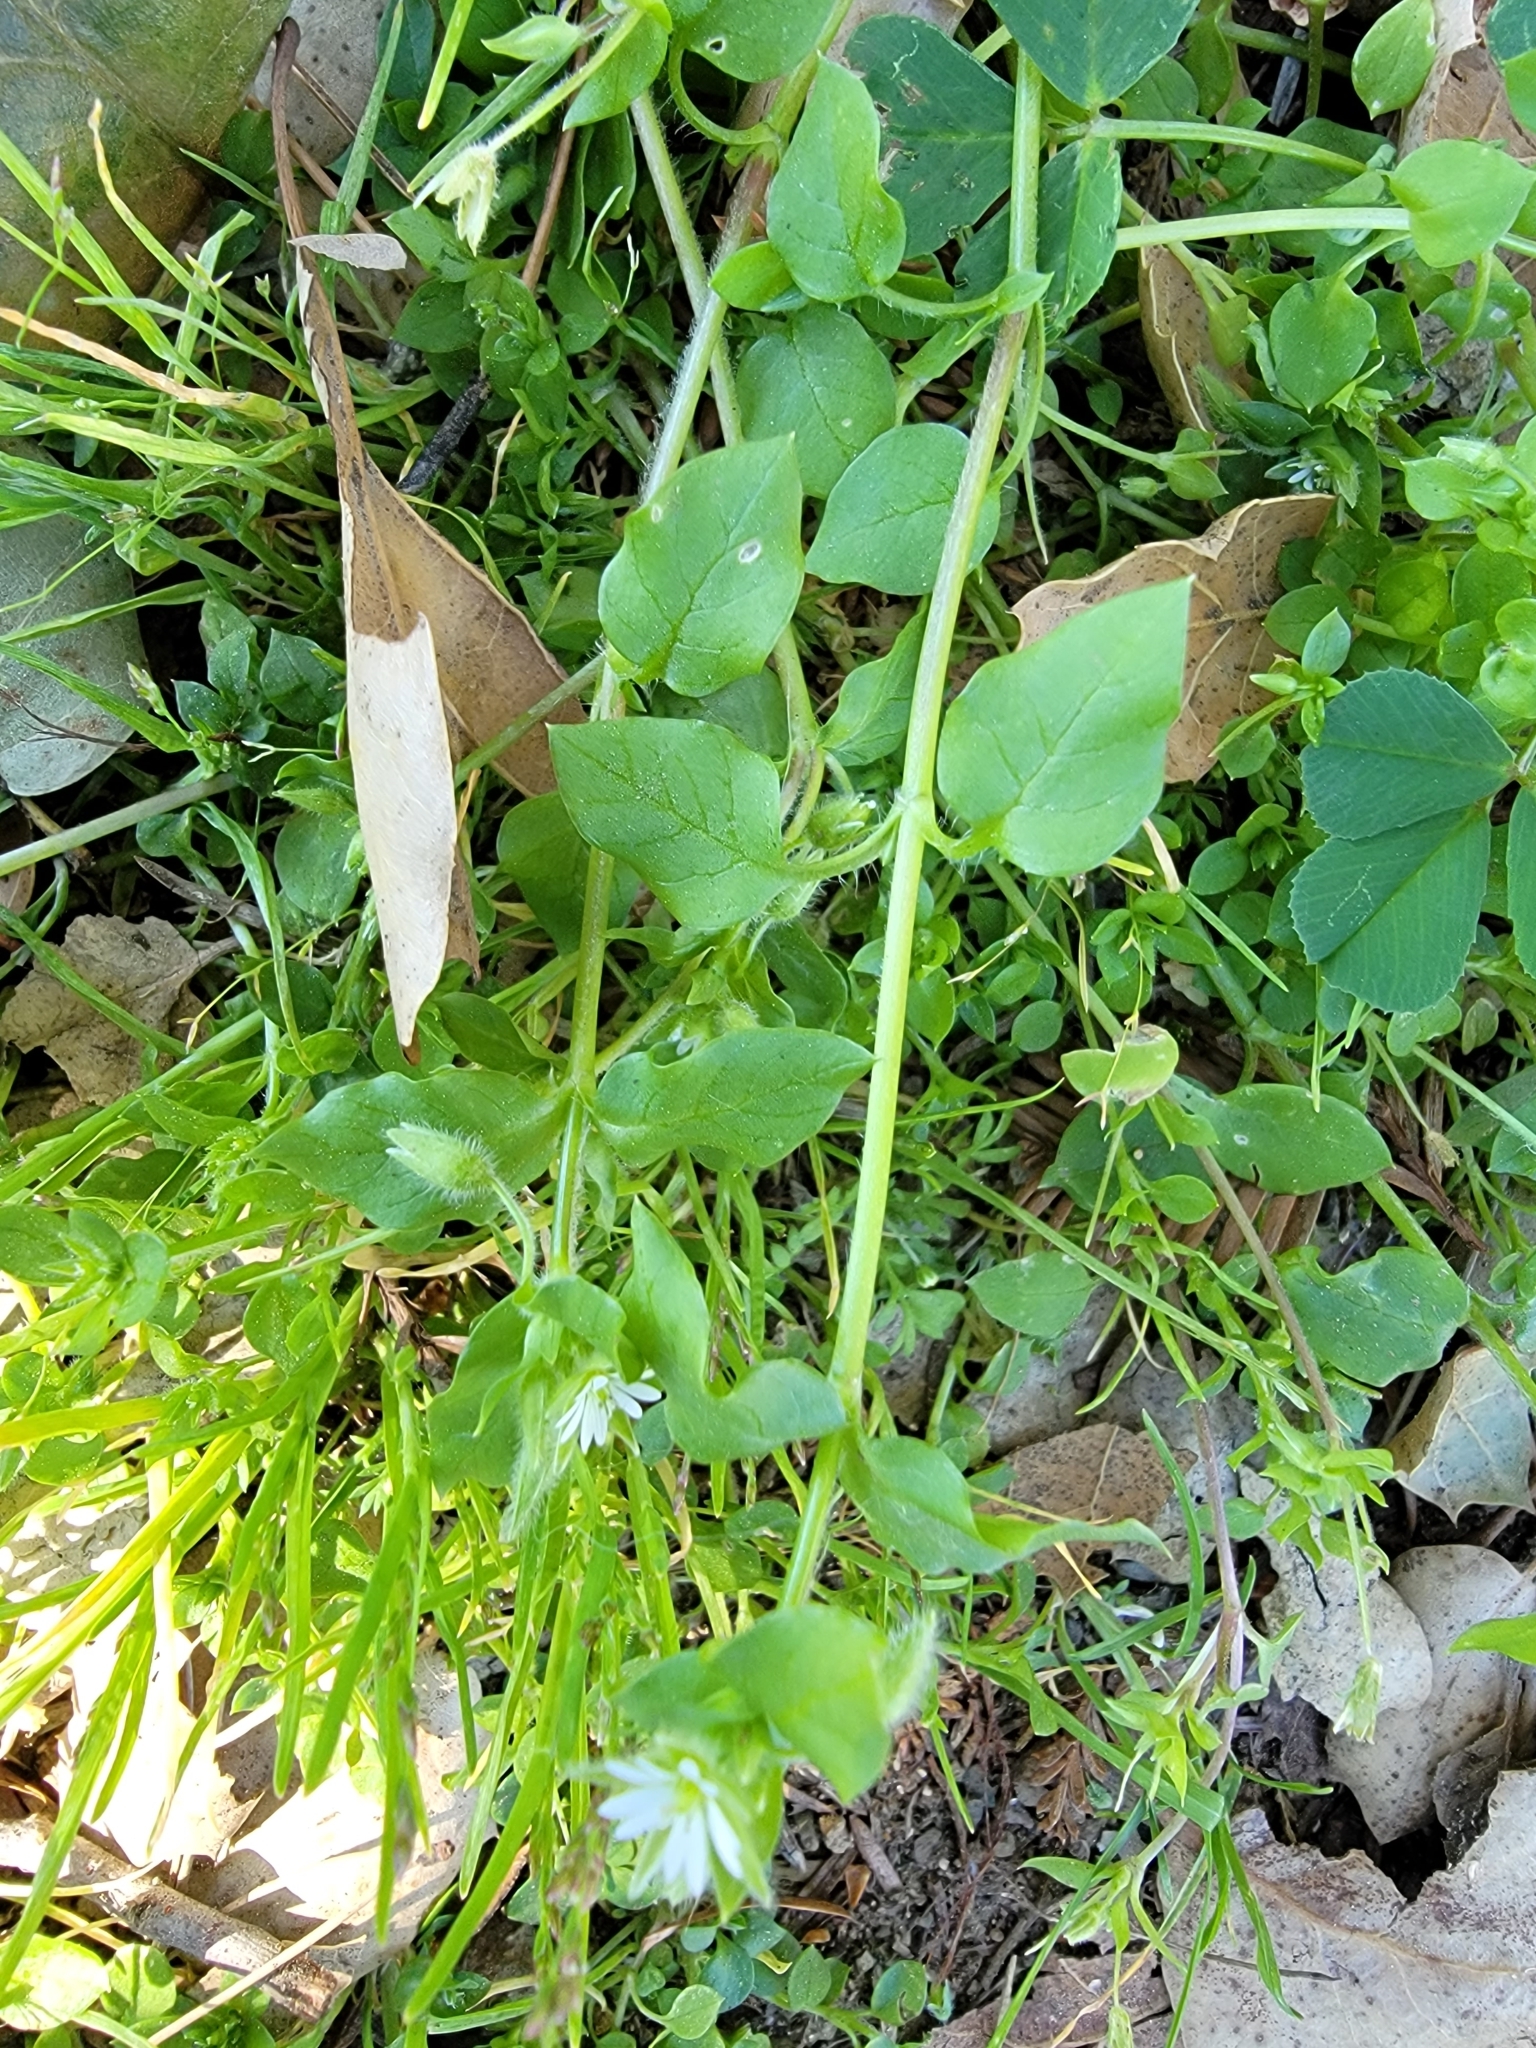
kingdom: Plantae
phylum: Tracheophyta
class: Magnoliopsida
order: Caryophyllales
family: Caryophyllaceae
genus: Stellaria
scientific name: Stellaria media
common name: Common chickweed
